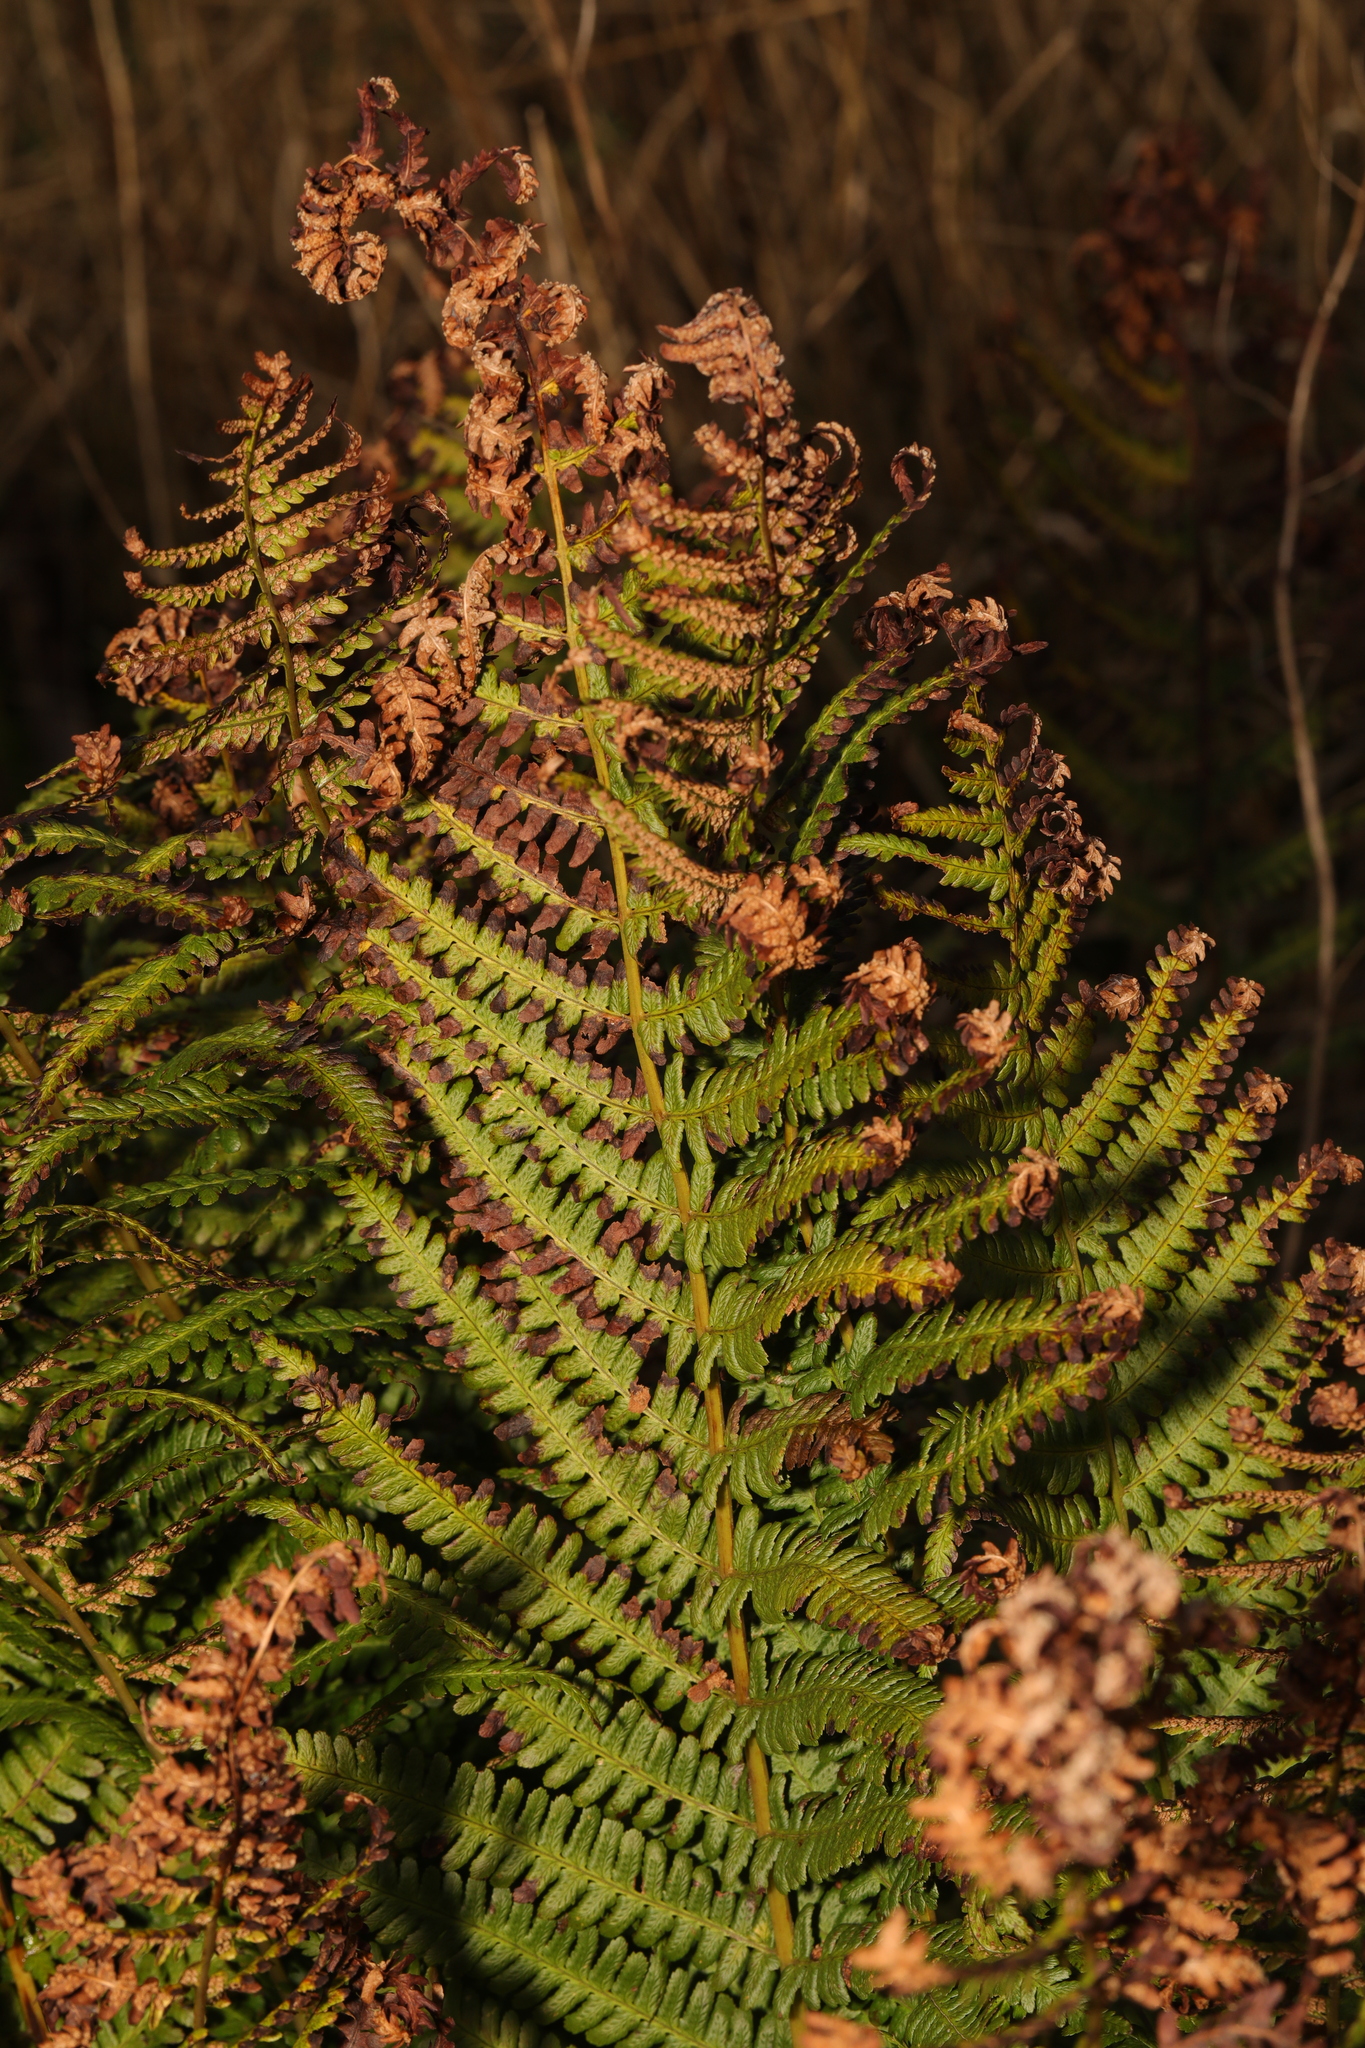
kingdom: Plantae
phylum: Tracheophyta
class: Polypodiopsida
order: Polypodiales
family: Dryopteridaceae
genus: Dryopteris
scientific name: Dryopteris filix-mas
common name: Male fern
